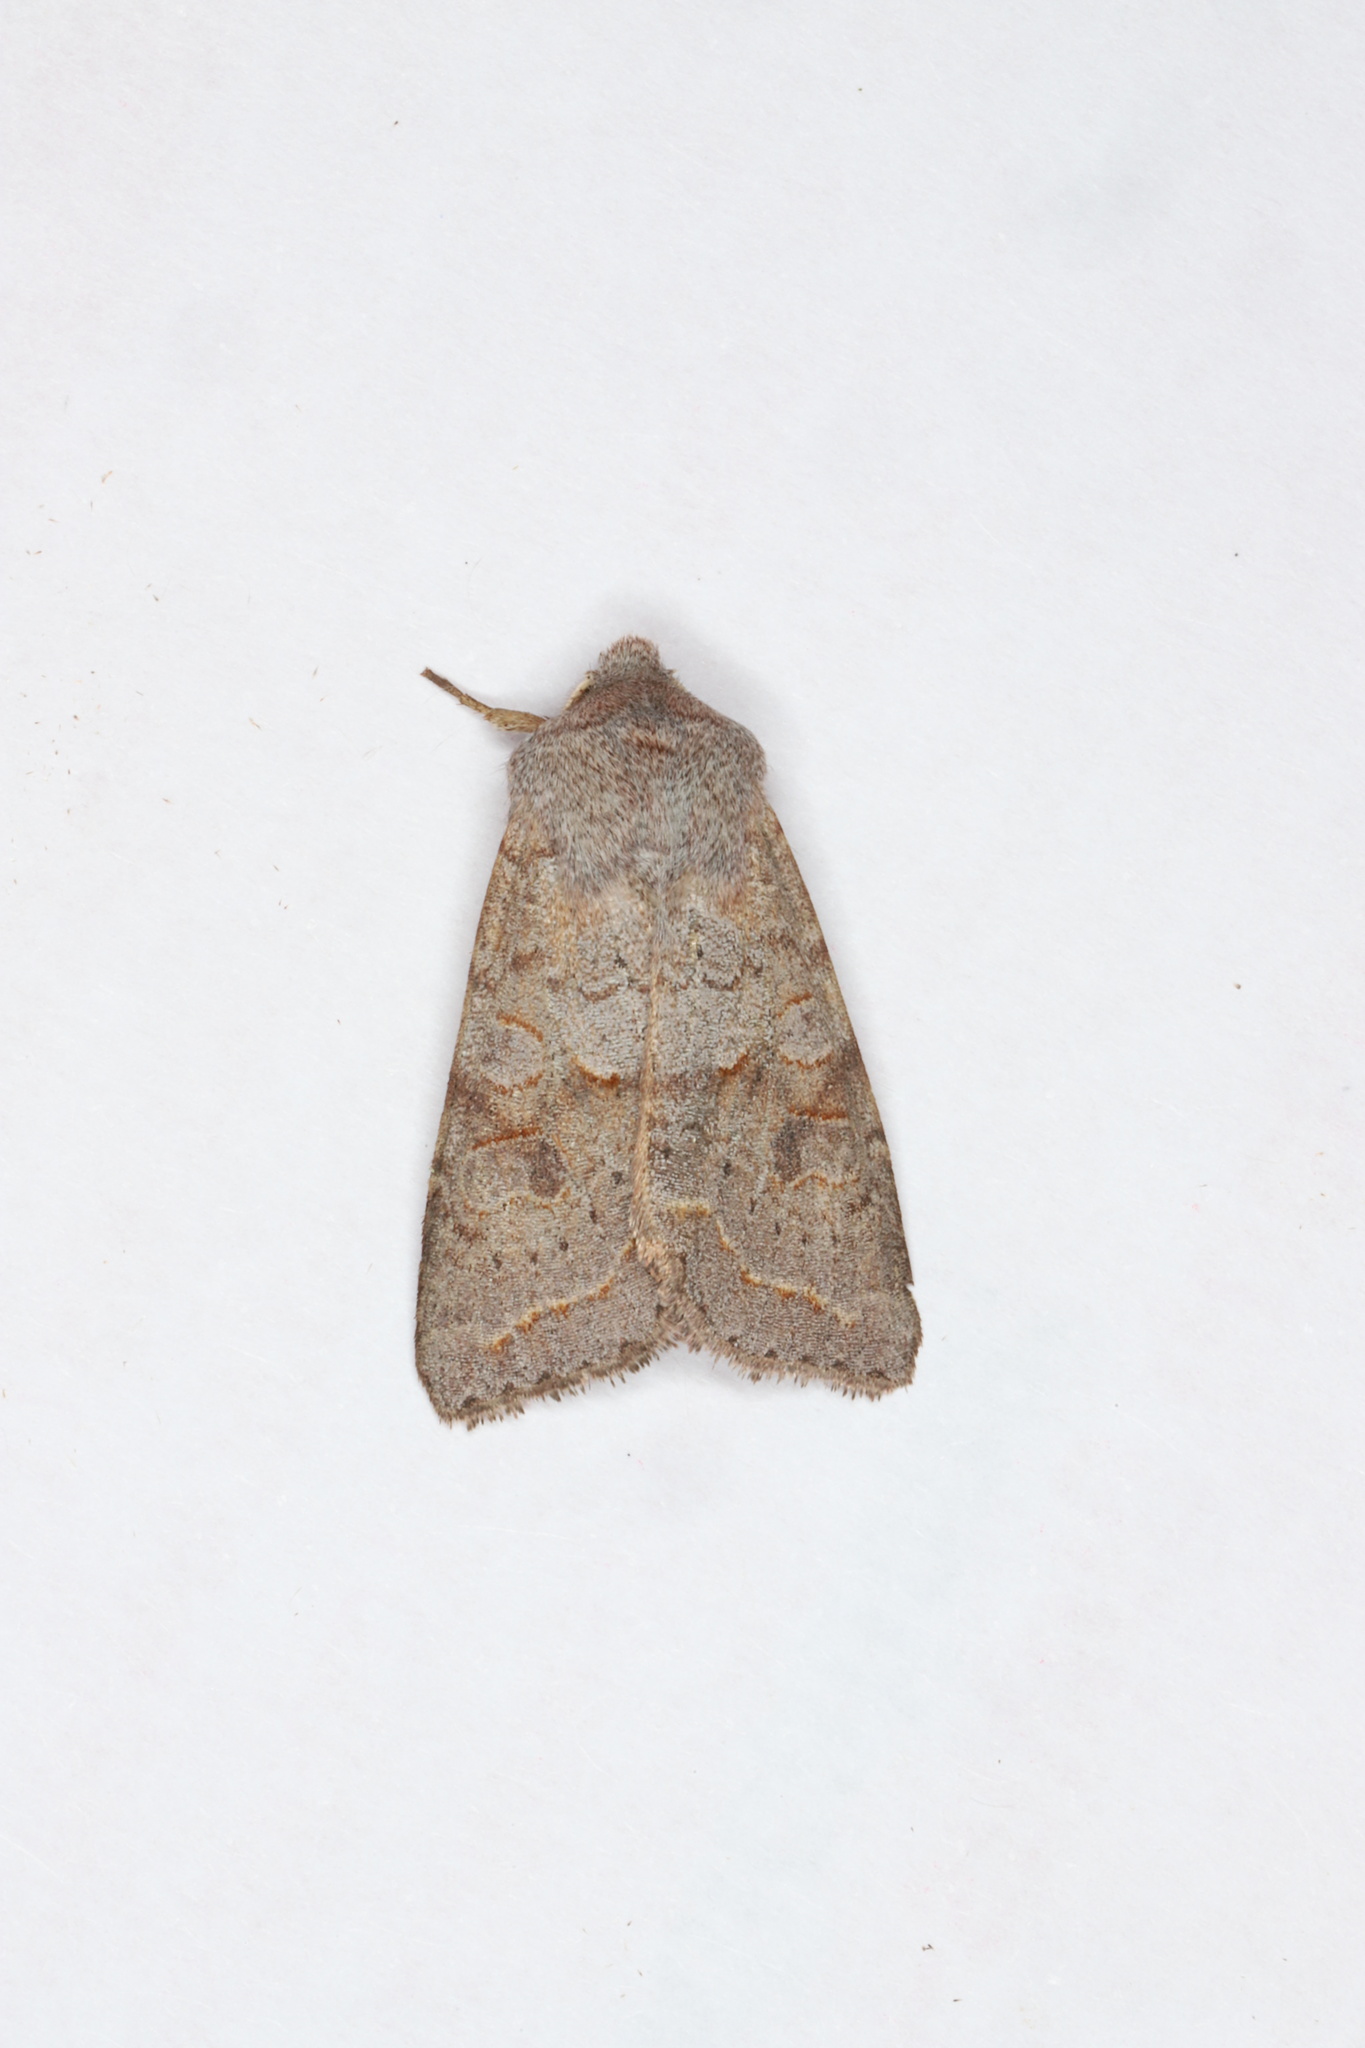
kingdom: Animalia
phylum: Arthropoda
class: Insecta
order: Lepidoptera
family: Noctuidae
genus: Orthosia
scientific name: Orthosia revicta
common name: Rusty whitesided caterpillar
